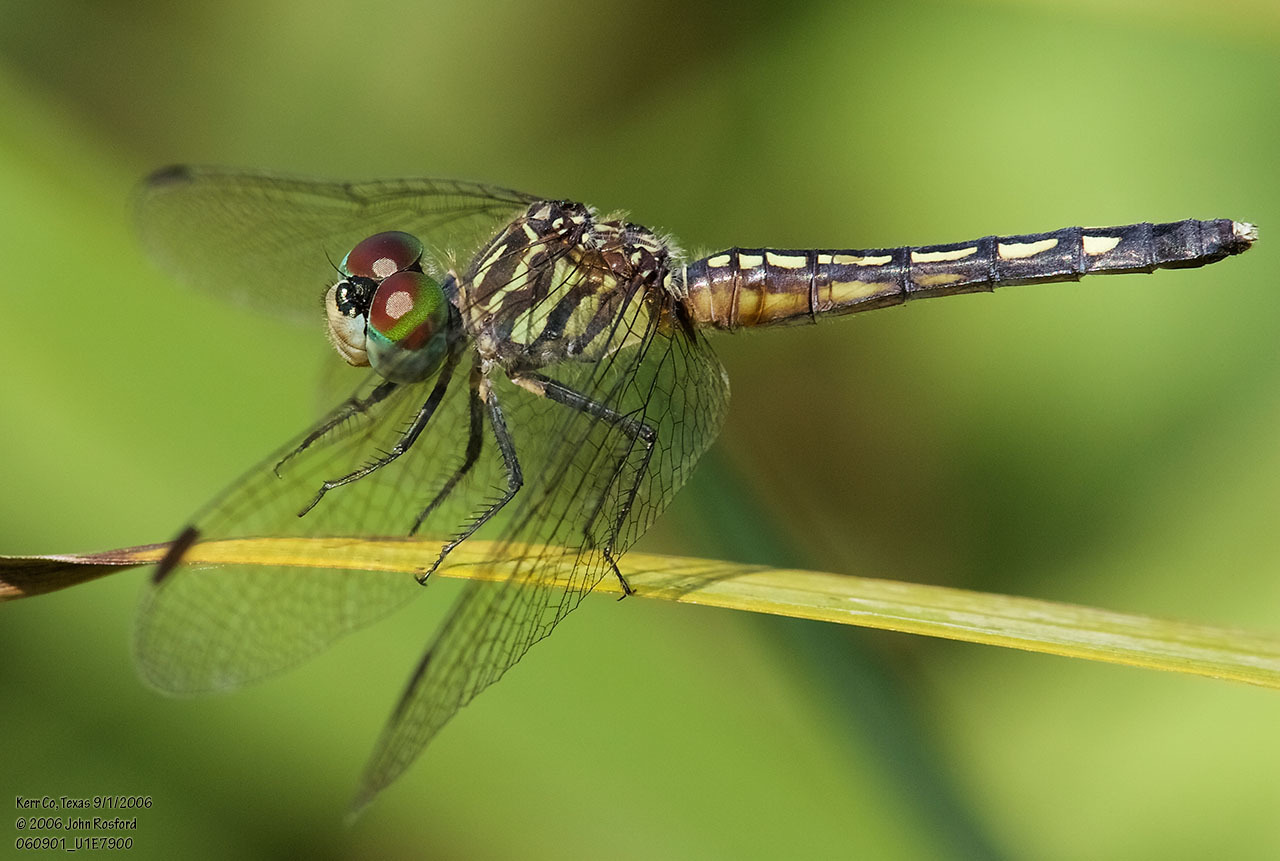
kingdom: Animalia
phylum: Arthropoda
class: Insecta
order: Odonata
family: Libellulidae
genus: Pachydiplax
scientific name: Pachydiplax longipennis
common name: Blue dasher
